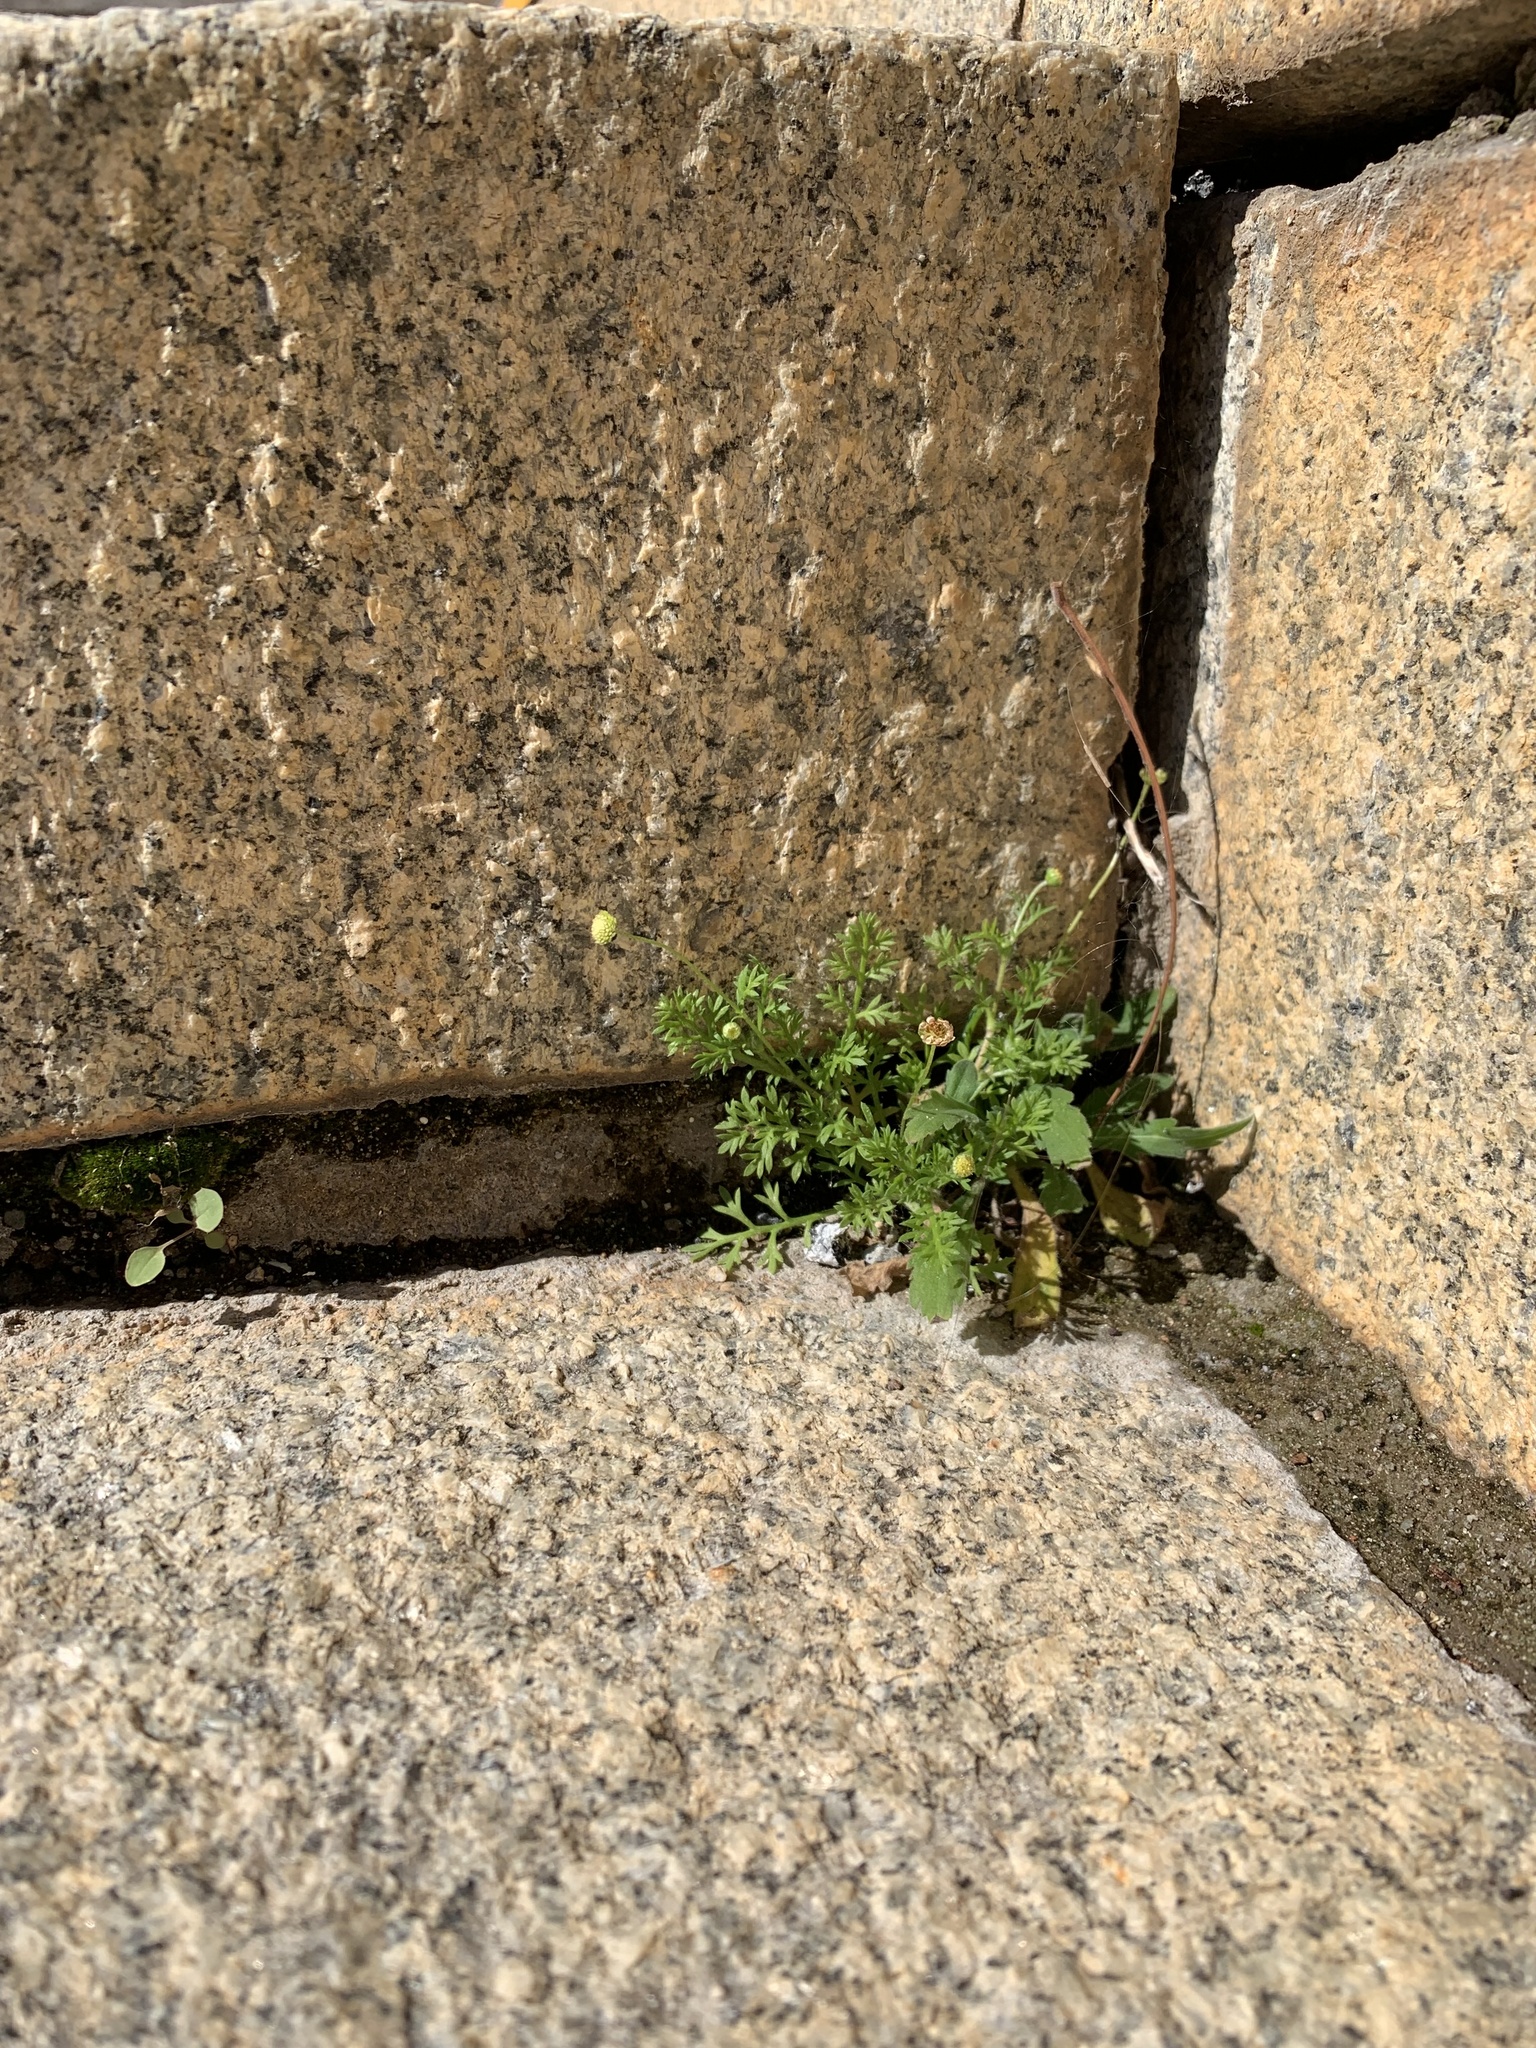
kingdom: Plantae
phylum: Tracheophyta
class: Magnoliopsida
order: Asterales
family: Asteraceae
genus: Cotula
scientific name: Cotula australis
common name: Australian waterbuttons
